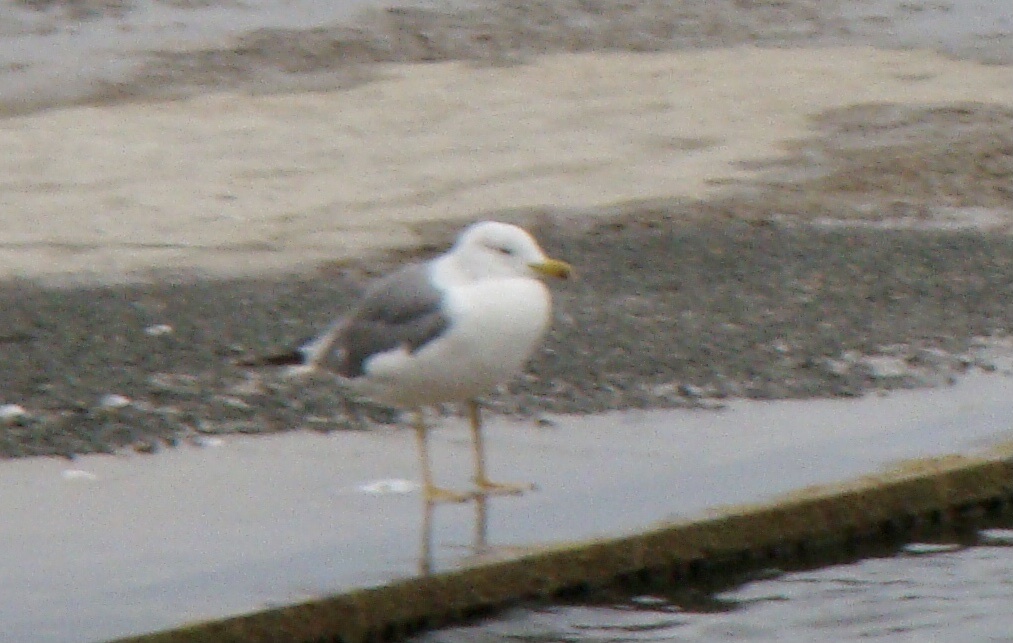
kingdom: Animalia
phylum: Chordata
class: Aves
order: Charadriiformes
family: Laridae
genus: Larus
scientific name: Larus armenicus
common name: Armenian gull
